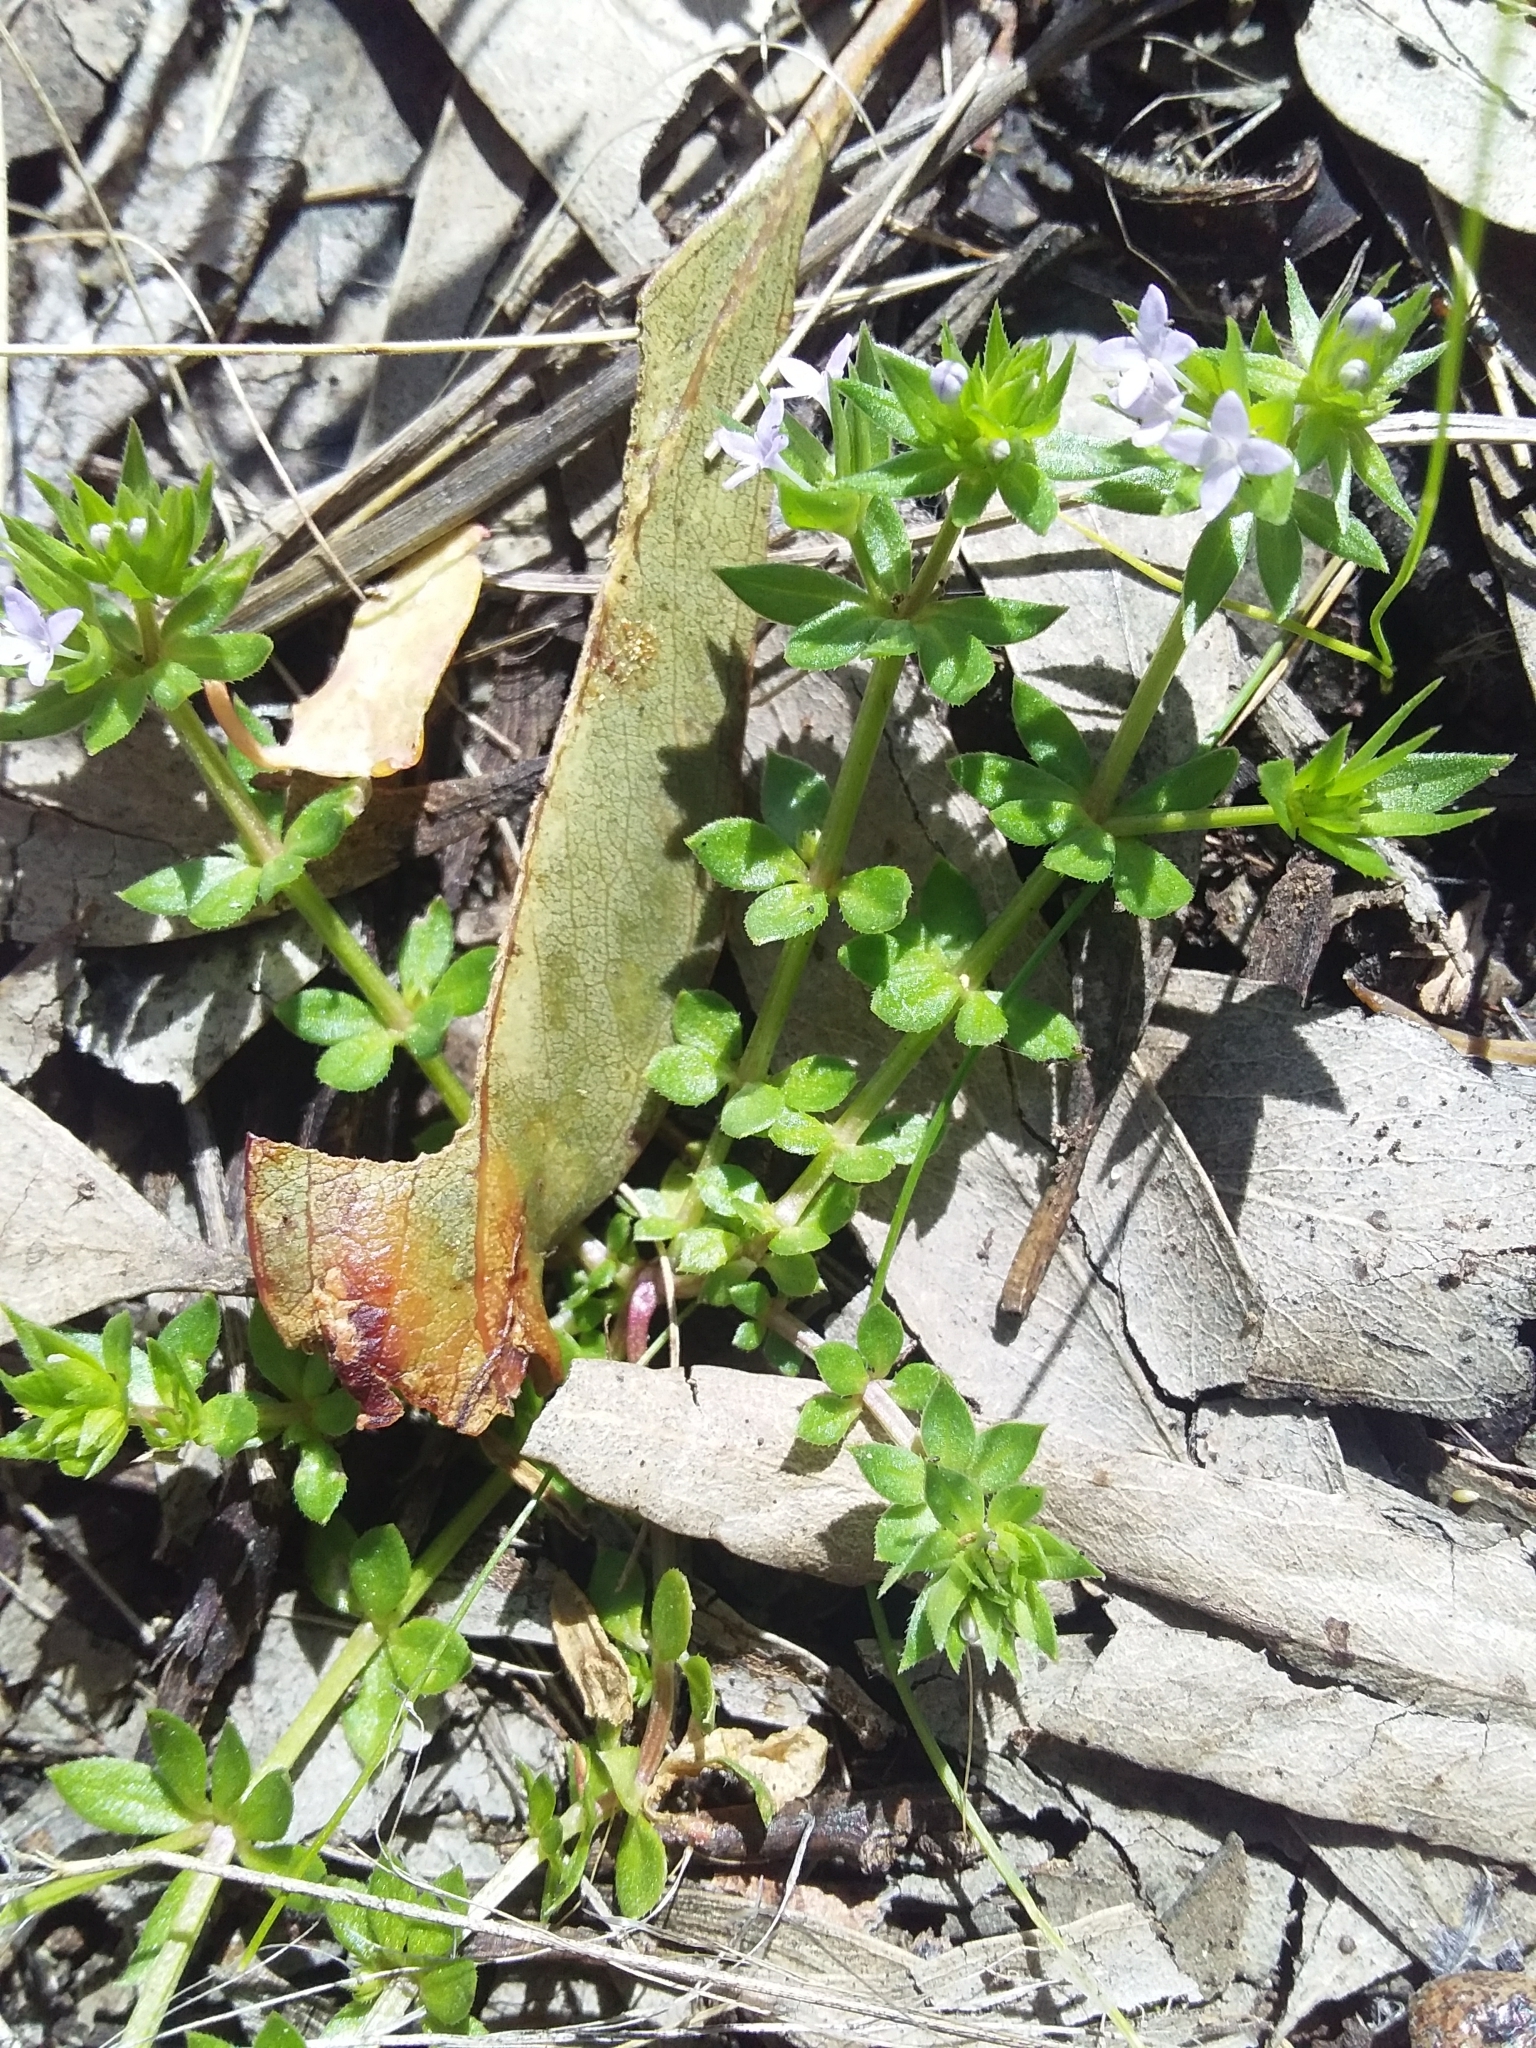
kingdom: Plantae
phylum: Tracheophyta
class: Magnoliopsida
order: Gentianales
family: Rubiaceae
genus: Sherardia
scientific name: Sherardia arvensis
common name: Field madder
